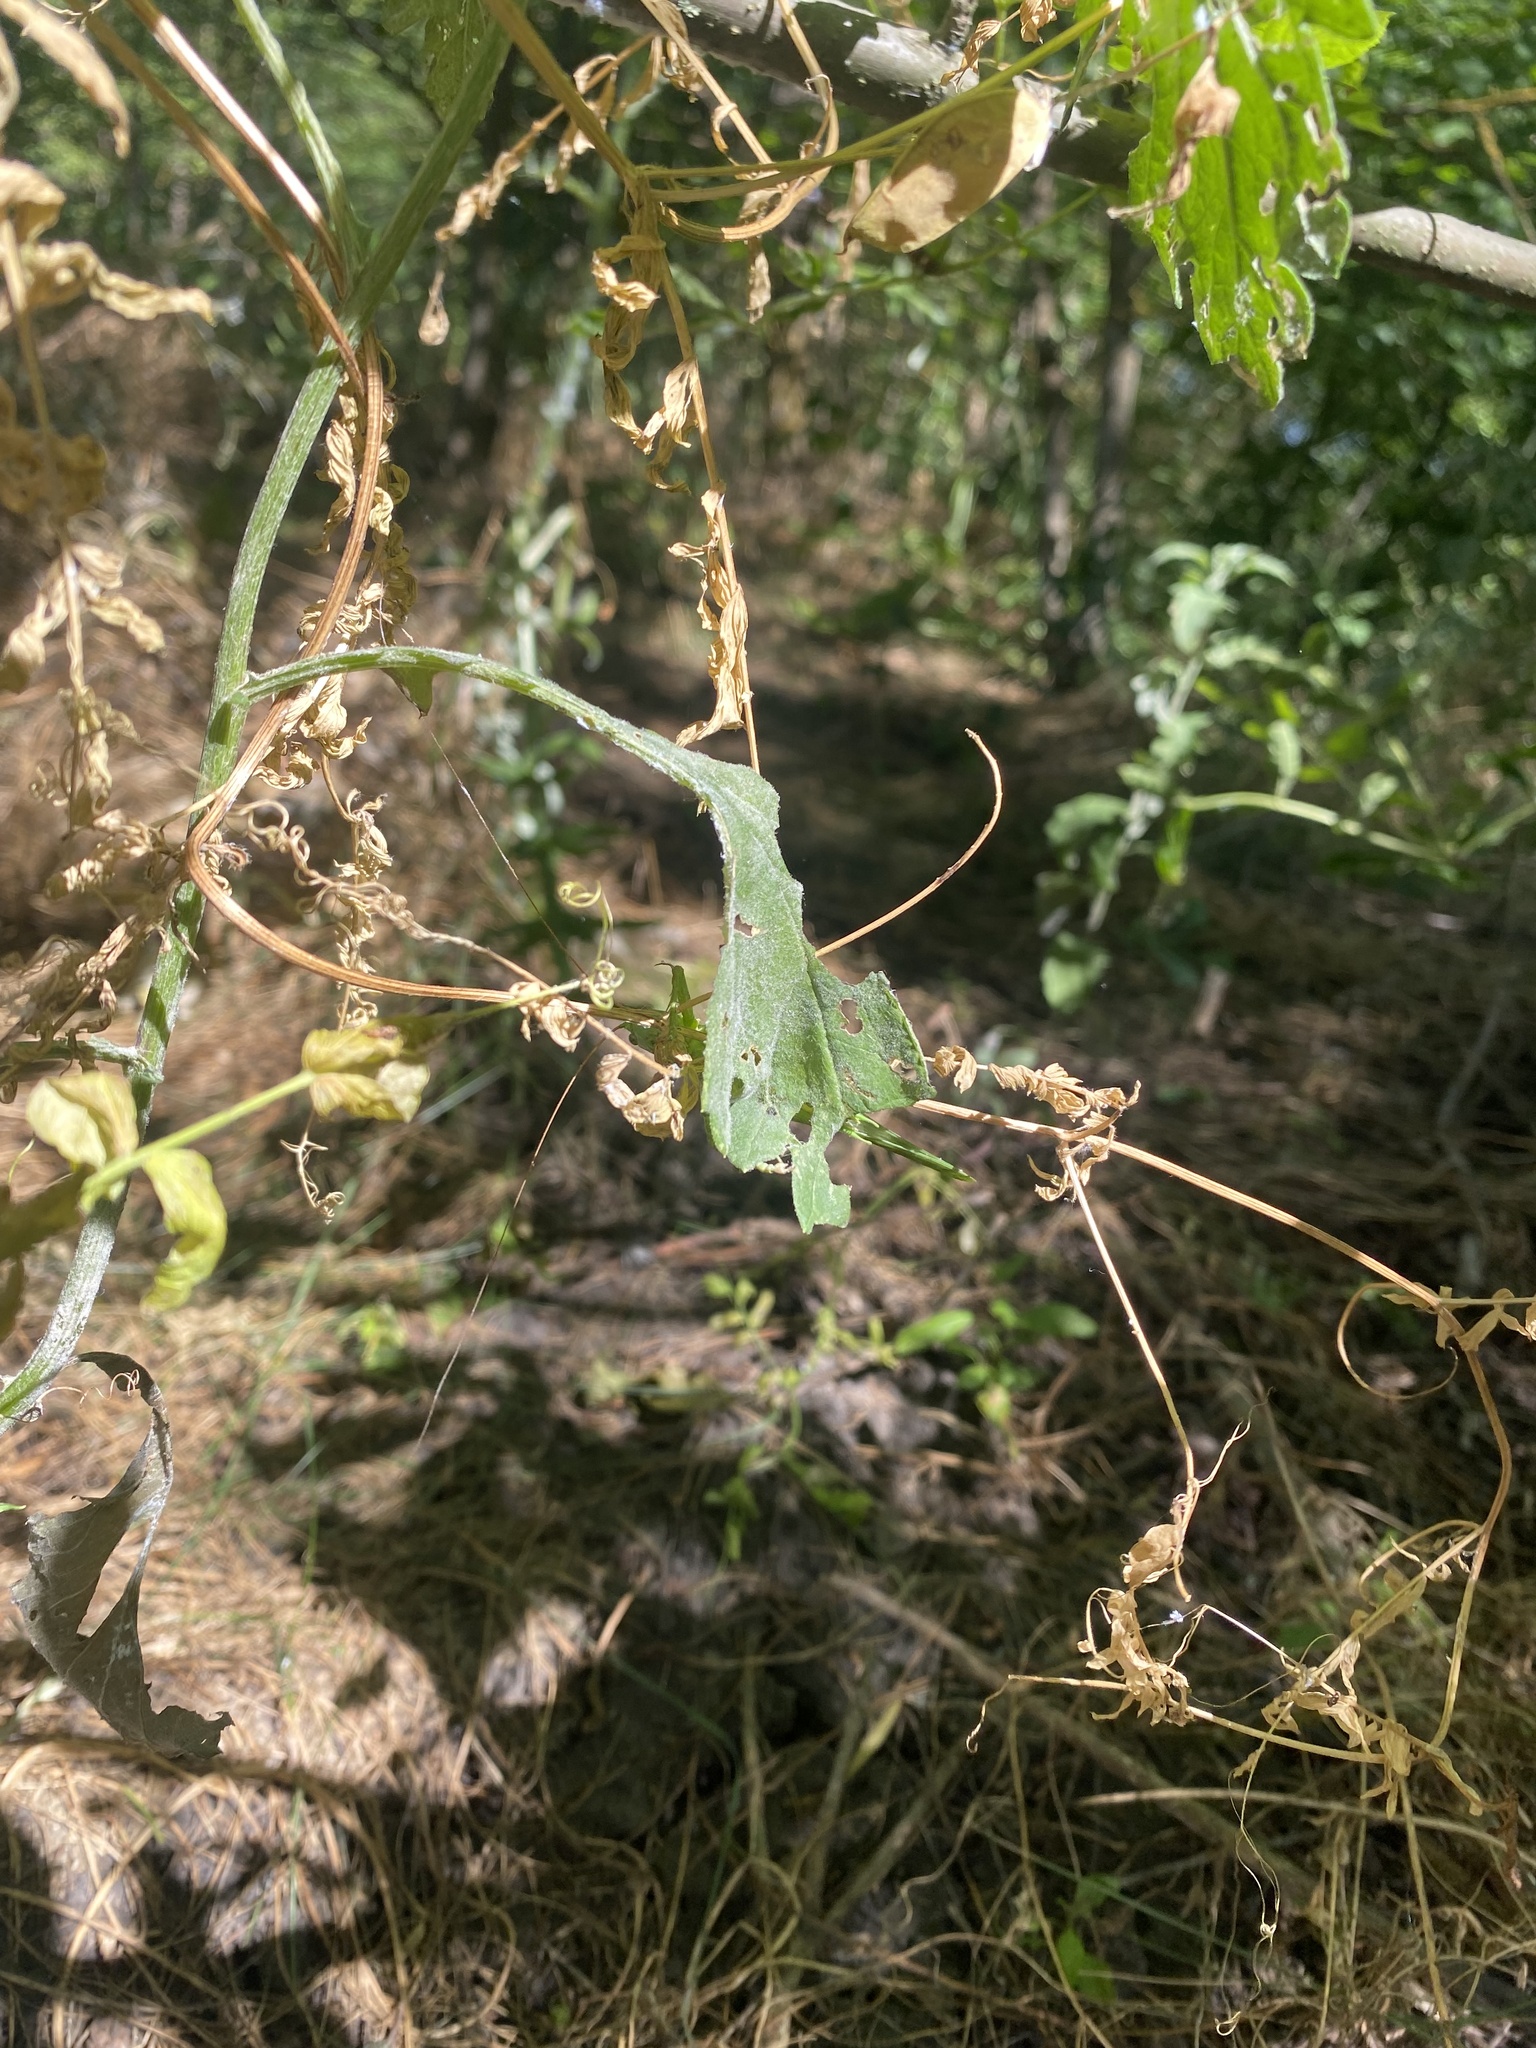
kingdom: Animalia
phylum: Arthropoda
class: Insecta
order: Orthoptera
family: Tettigoniidae
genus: Tettigonia
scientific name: Tettigonia viridissima
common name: Great green bush-cricket
